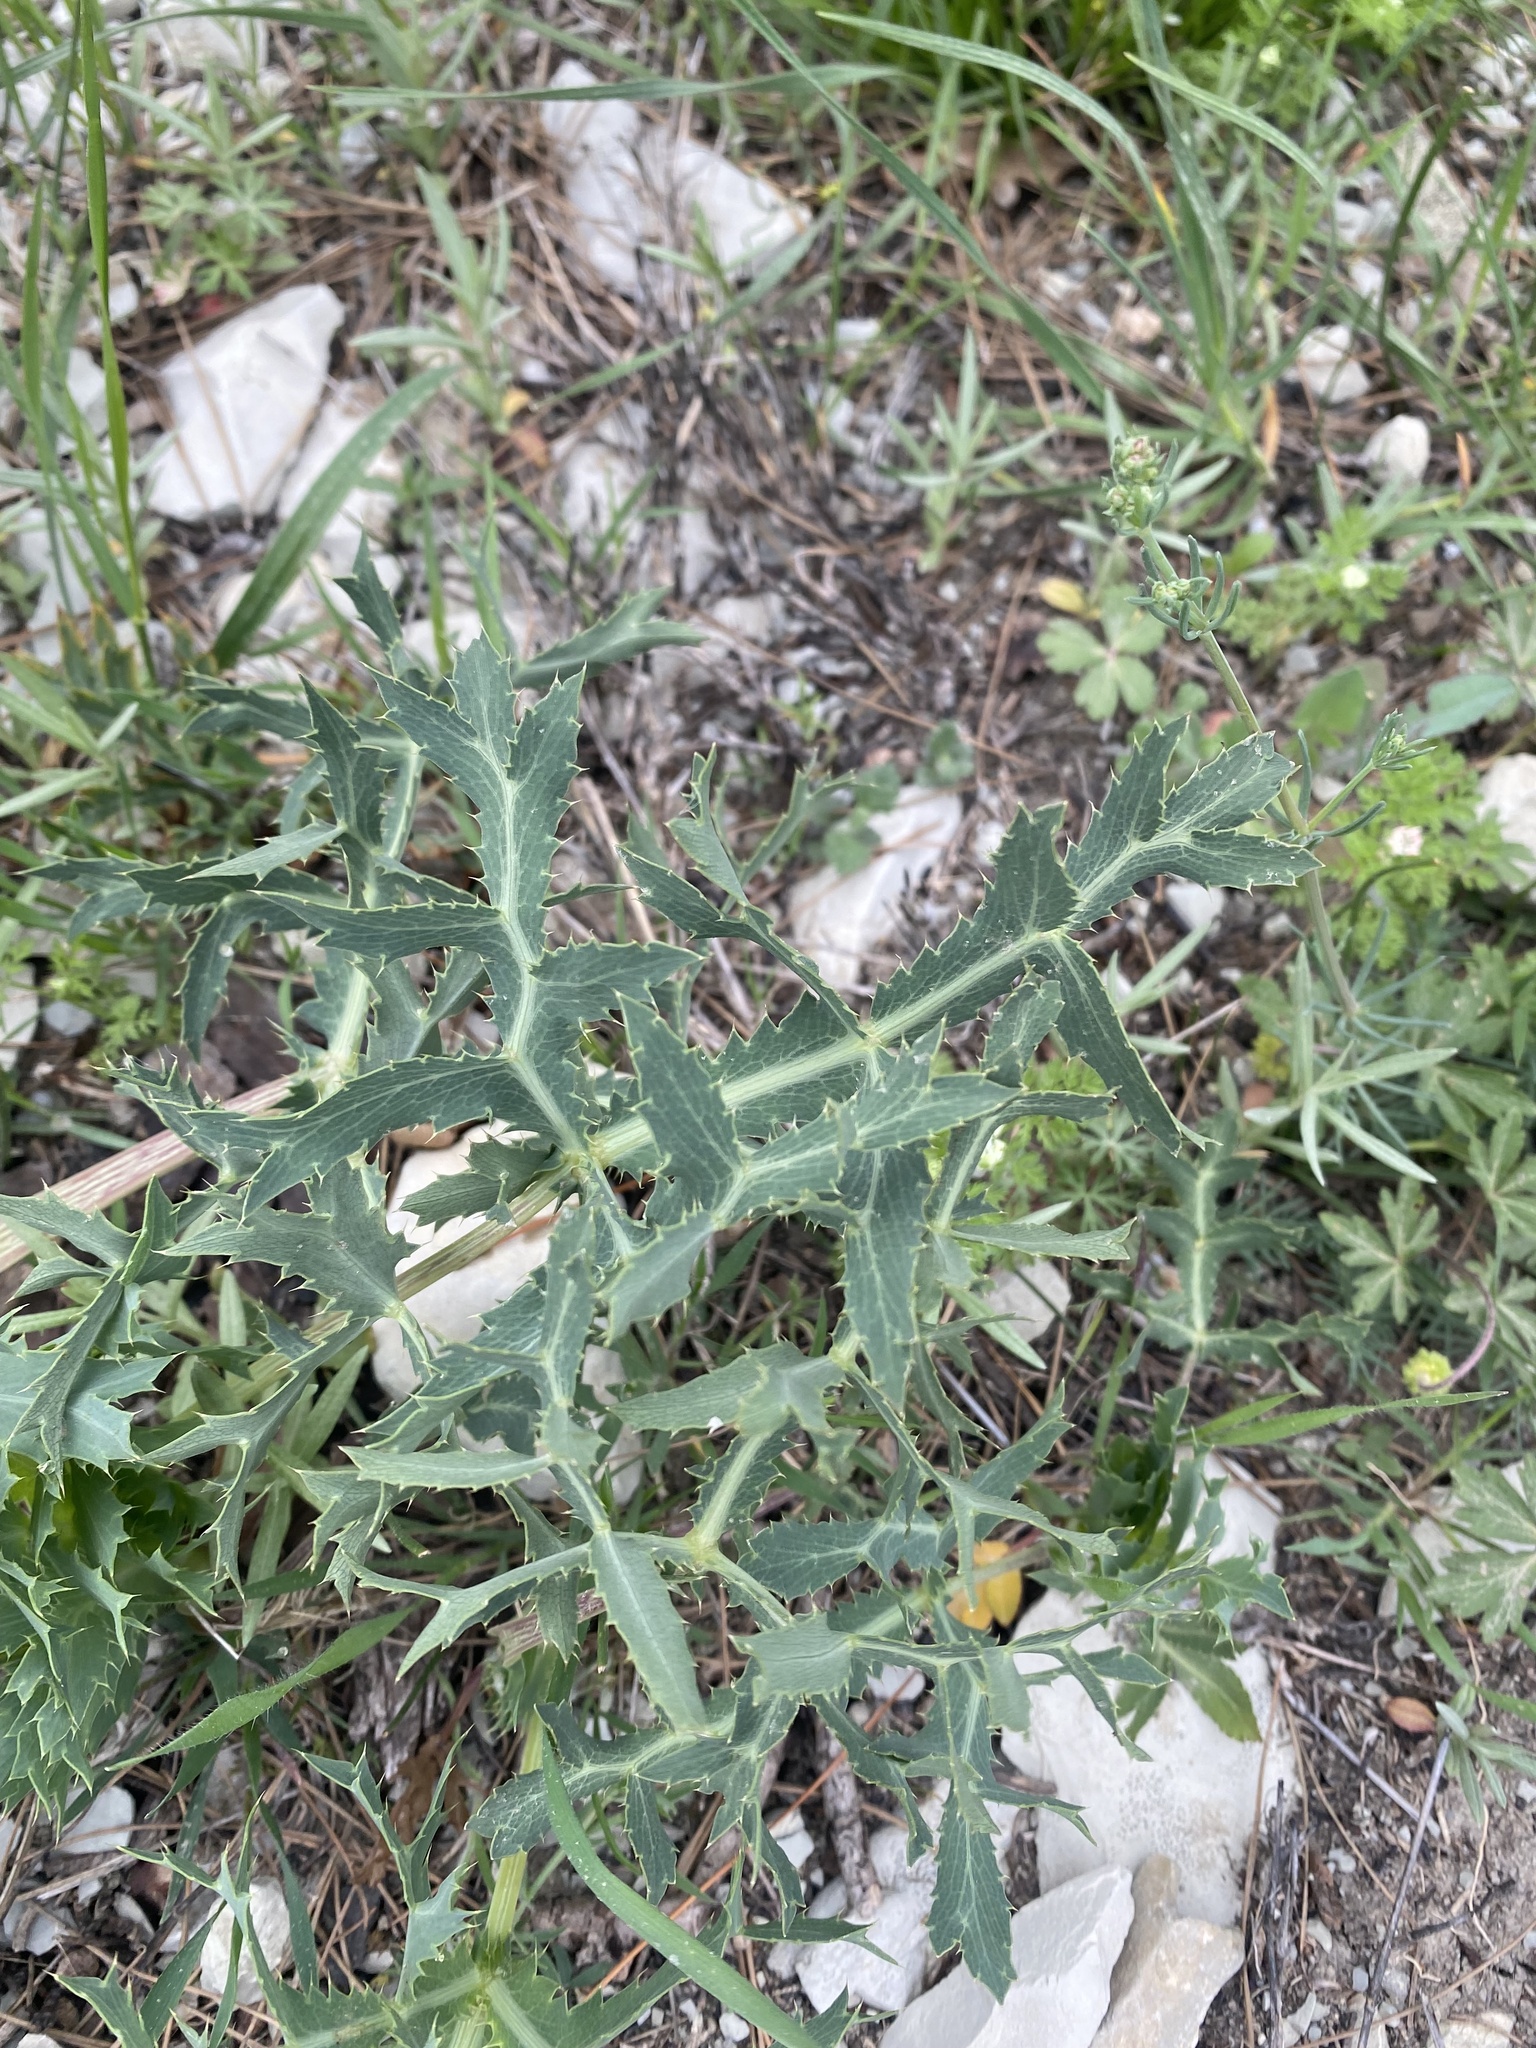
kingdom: Plantae
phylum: Tracheophyta
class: Magnoliopsida
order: Apiales
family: Apiaceae
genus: Eryngium
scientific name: Eryngium campestre
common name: Field eryngo
